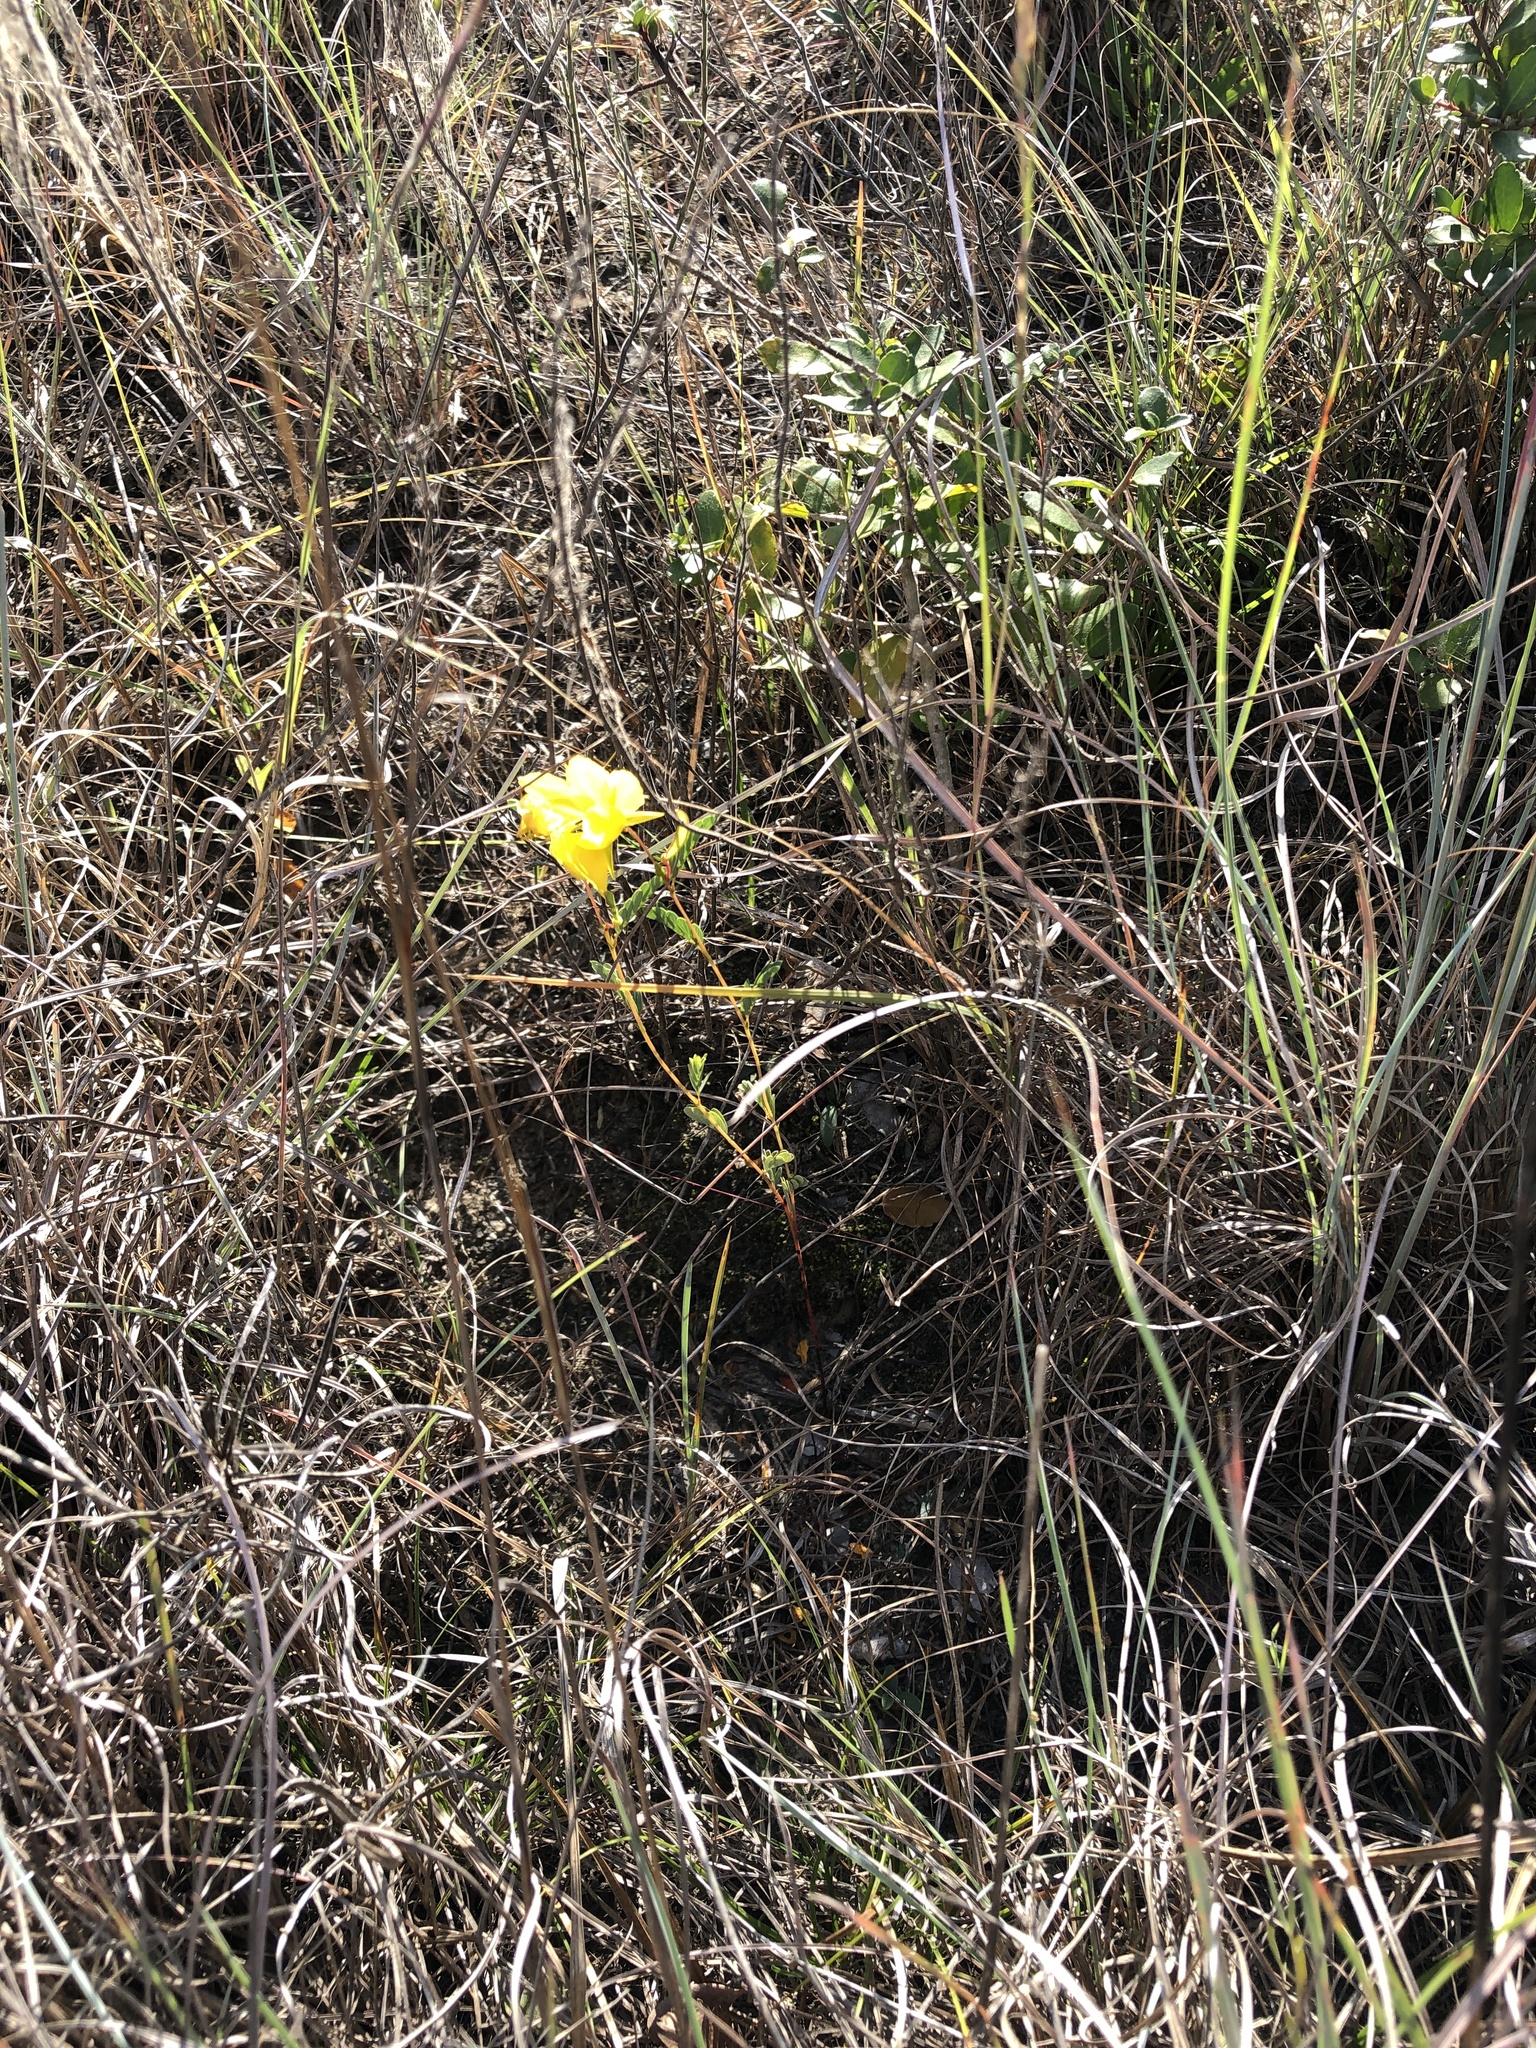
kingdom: Plantae
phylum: Tracheophyta
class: Magnoliopsida
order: Fabales
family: Fabaceae
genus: Chamaecrista
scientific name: Chamaecrista fasciculata
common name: Golden cassia
